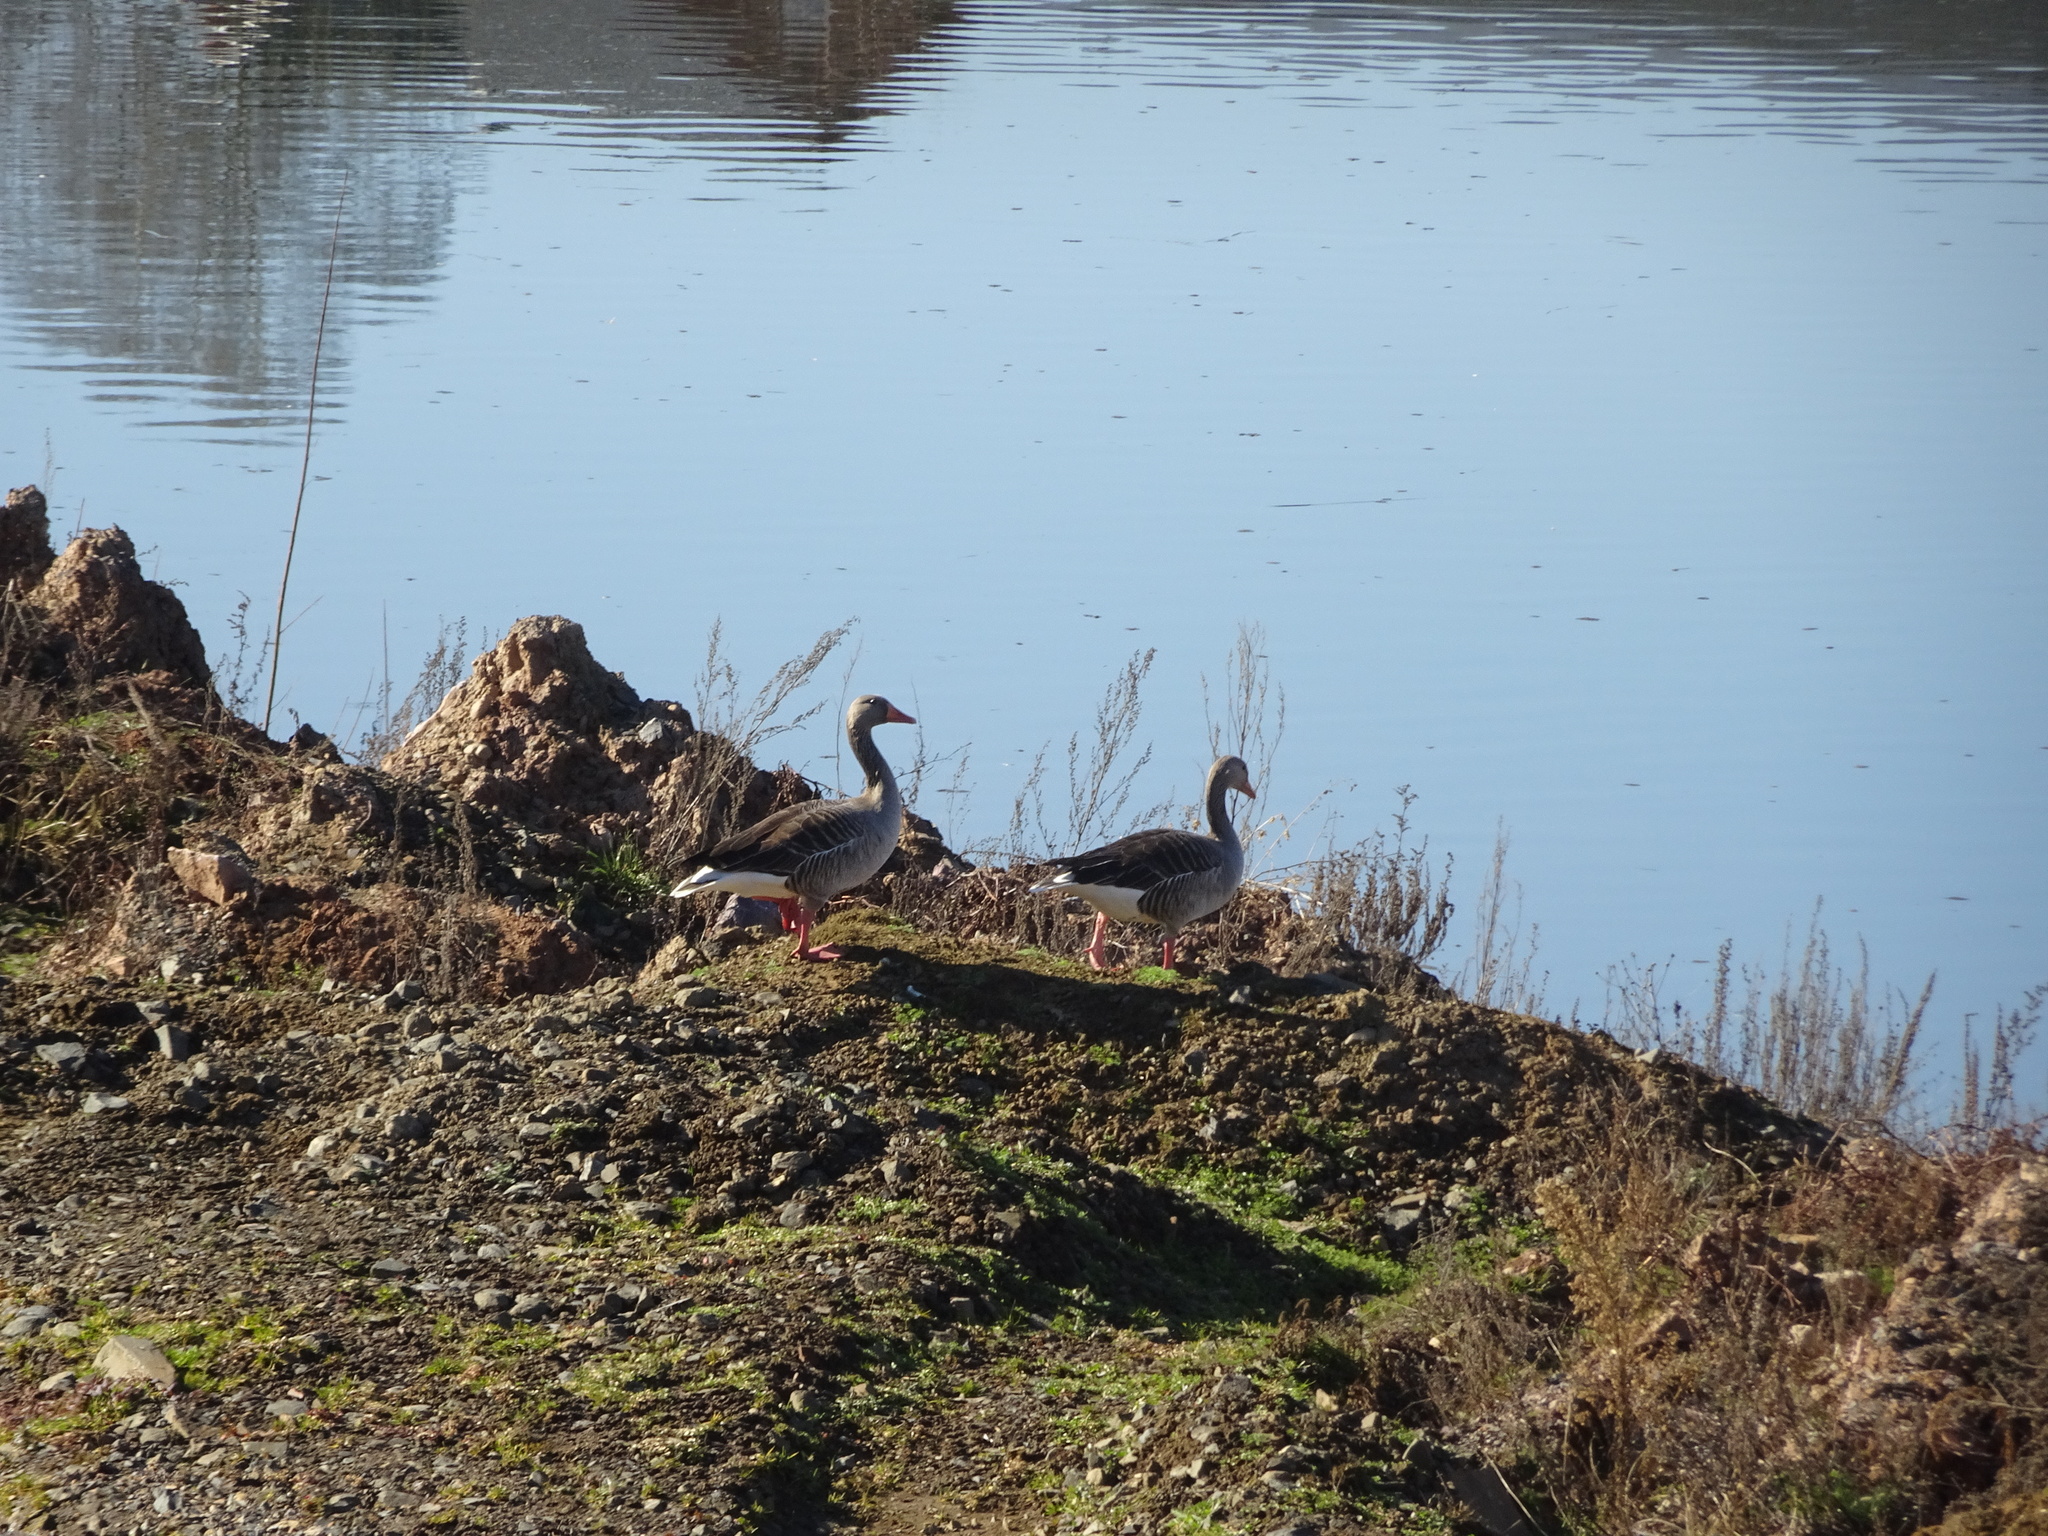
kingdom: Animalia
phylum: Chordata
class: Aves
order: Anseriformes
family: Anatidae
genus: Anser
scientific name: Anser anser
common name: Greylag goose
